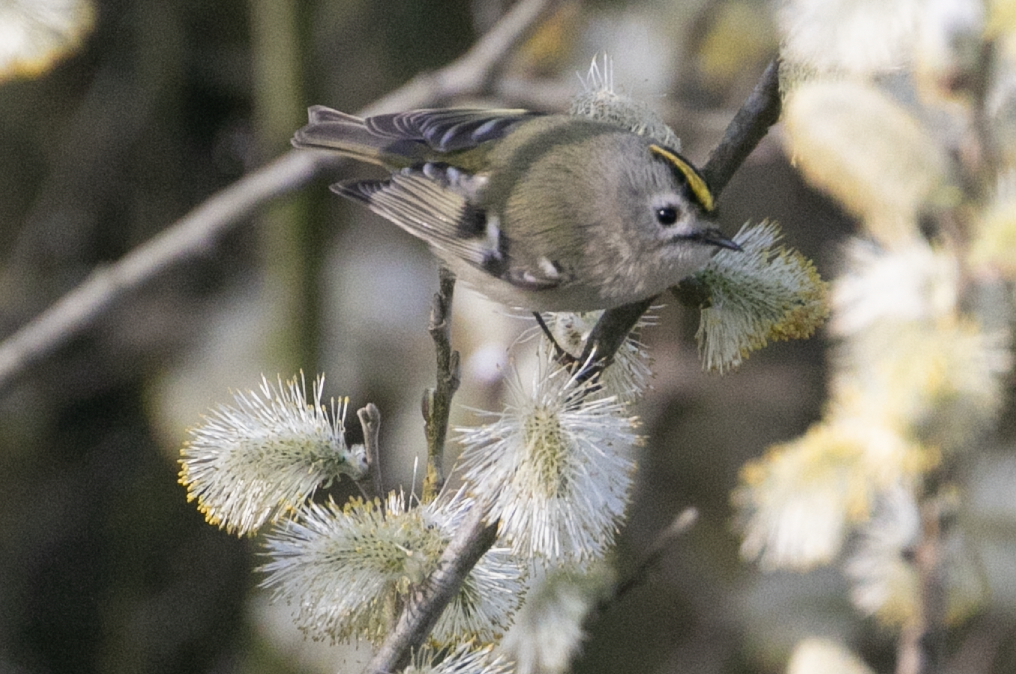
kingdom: Animalia
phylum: Chordata
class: Aves
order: Passeriformes
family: Regulidae
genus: Regulus
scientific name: Regulus regulus
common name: Goldcrest
